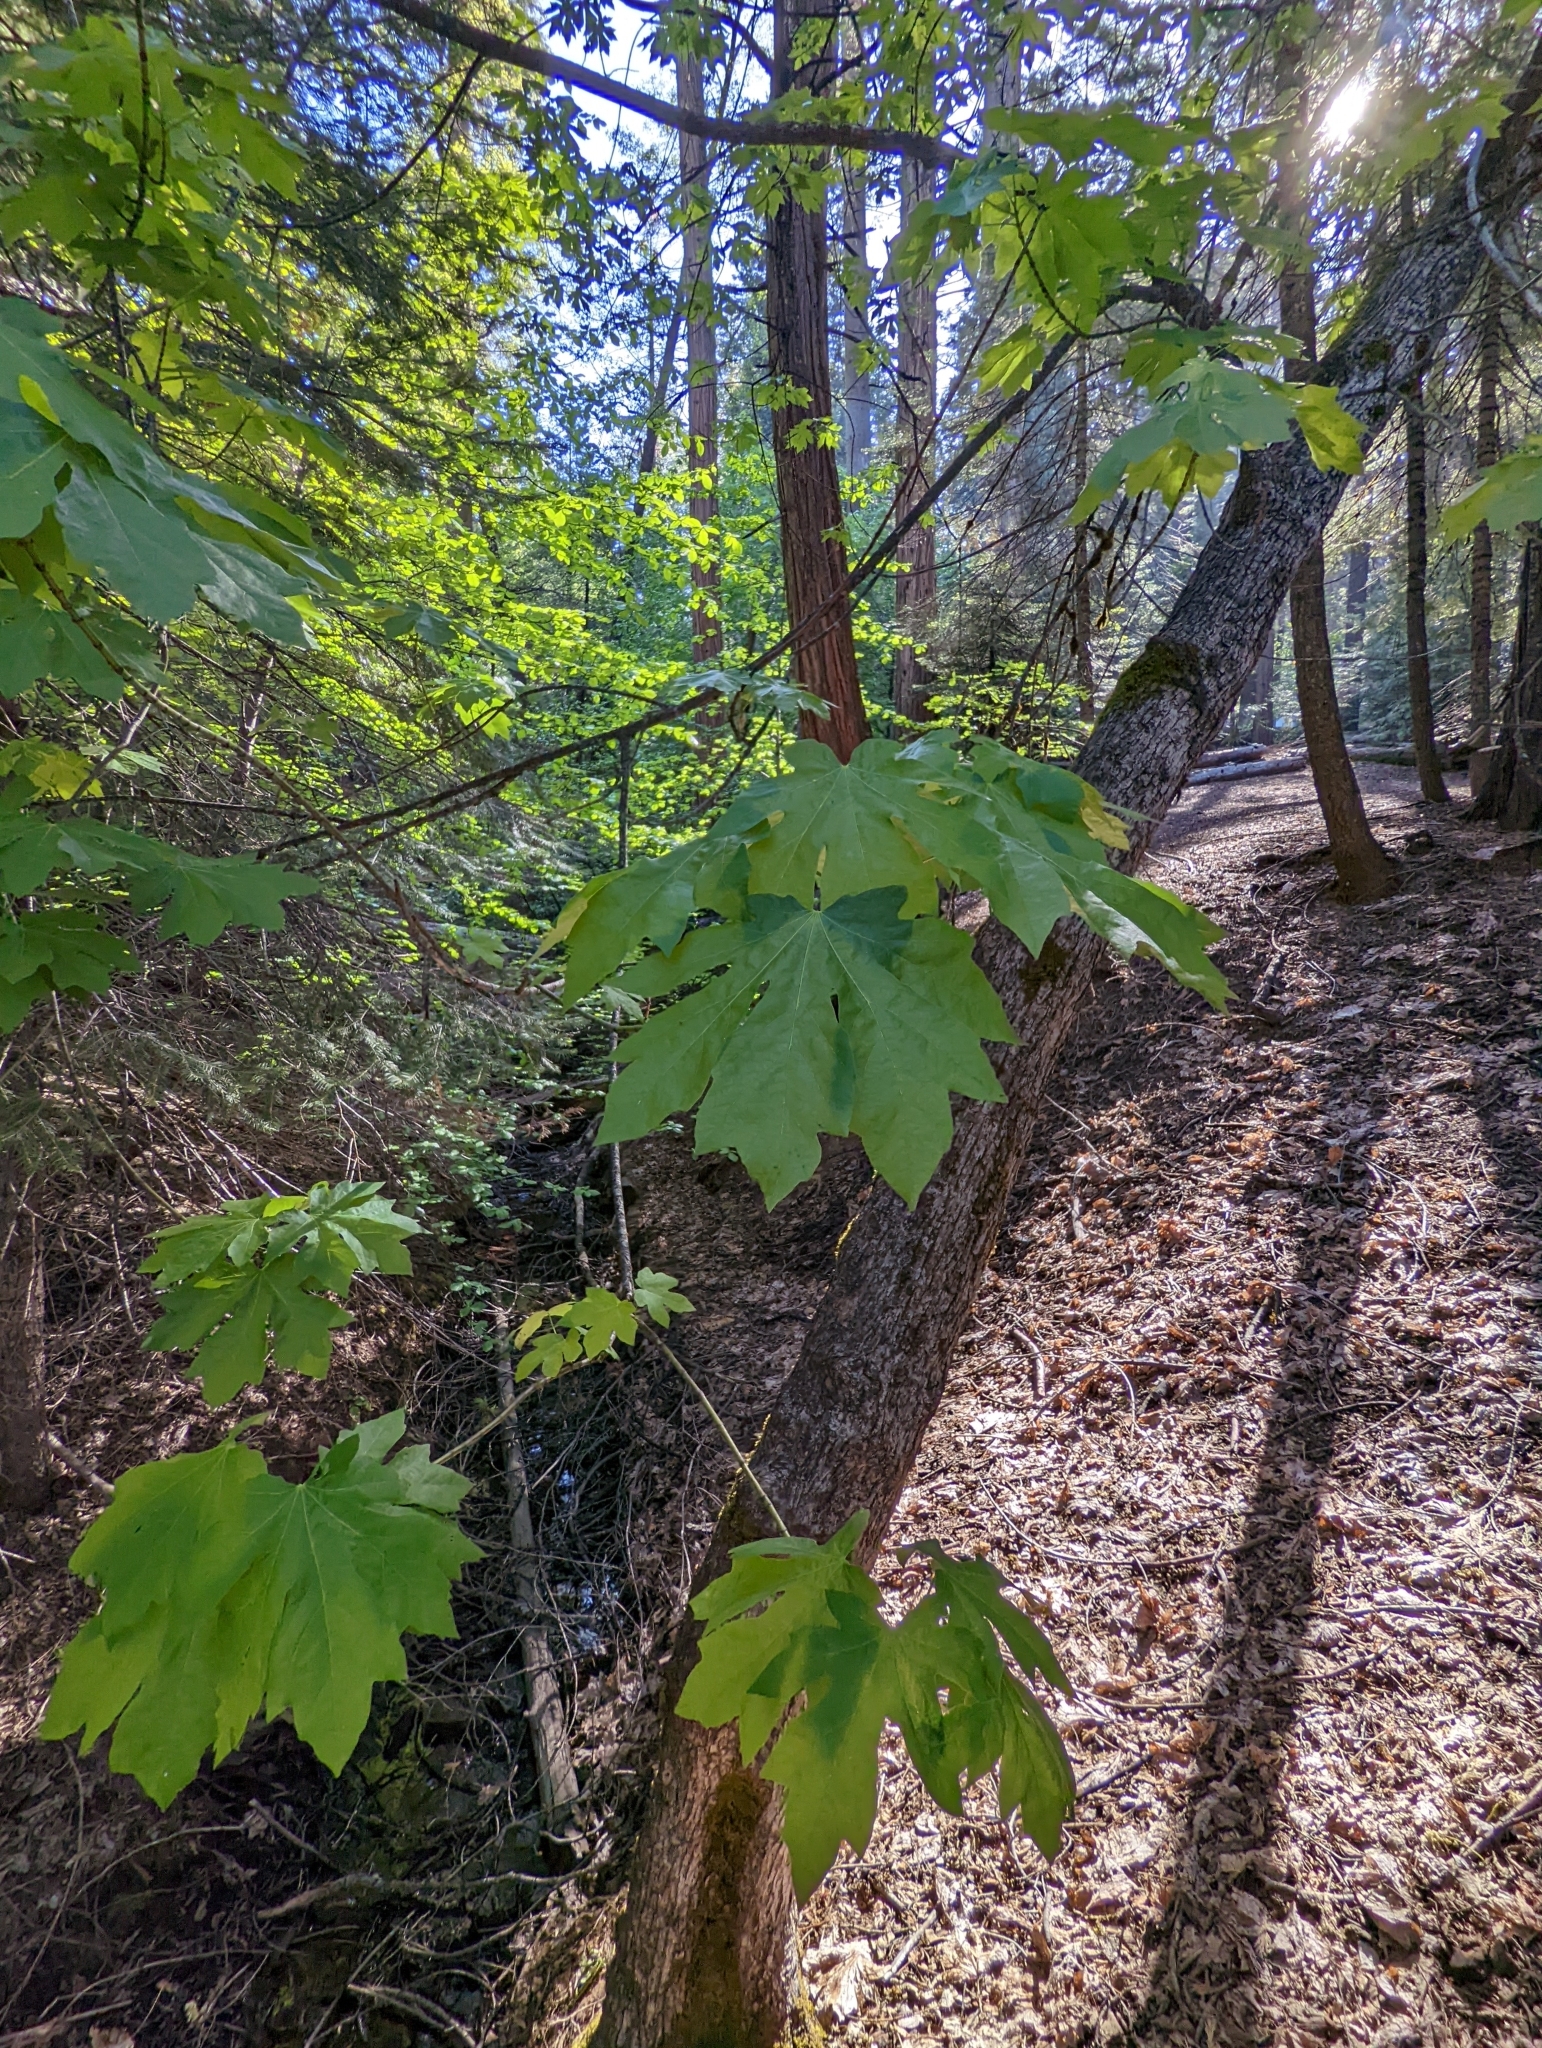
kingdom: Plantae
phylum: Tracheophyta
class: Magnoliopsida
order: Sapindales
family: Sapindaceae
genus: Acer
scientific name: Acer macrophyllum
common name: Oregon maple
